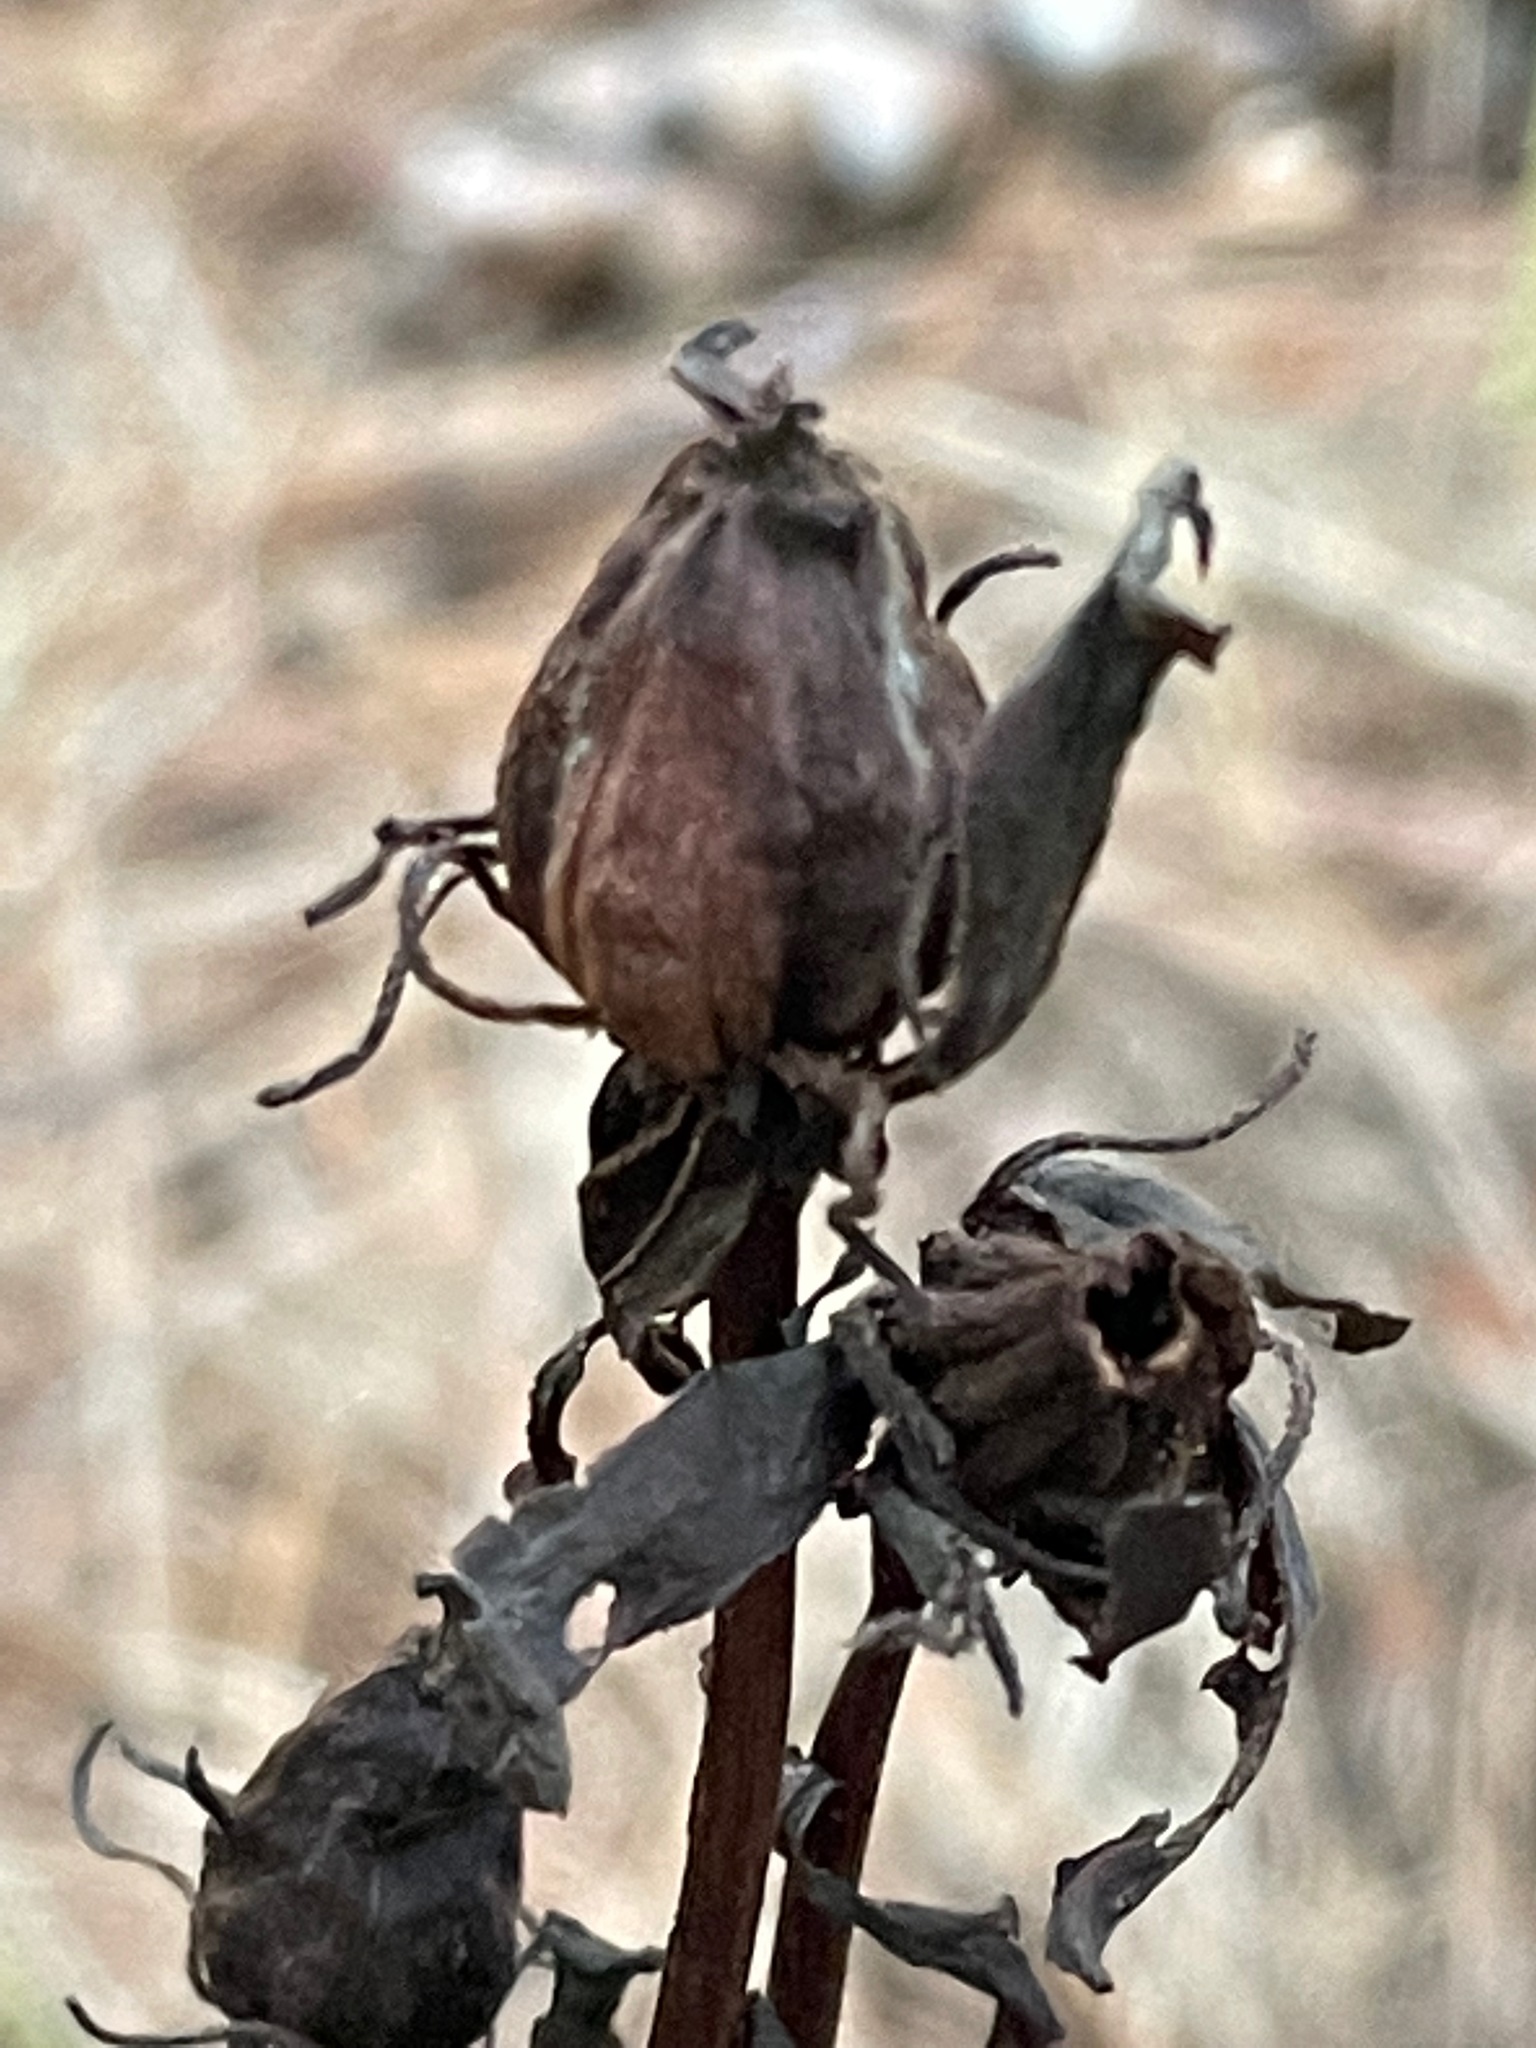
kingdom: Plantae
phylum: Tracheophyta
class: Magnoliopsida
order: Ericales
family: Ericaceae
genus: Monotropa
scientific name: Monotropa uniflora
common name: Convulsion root
